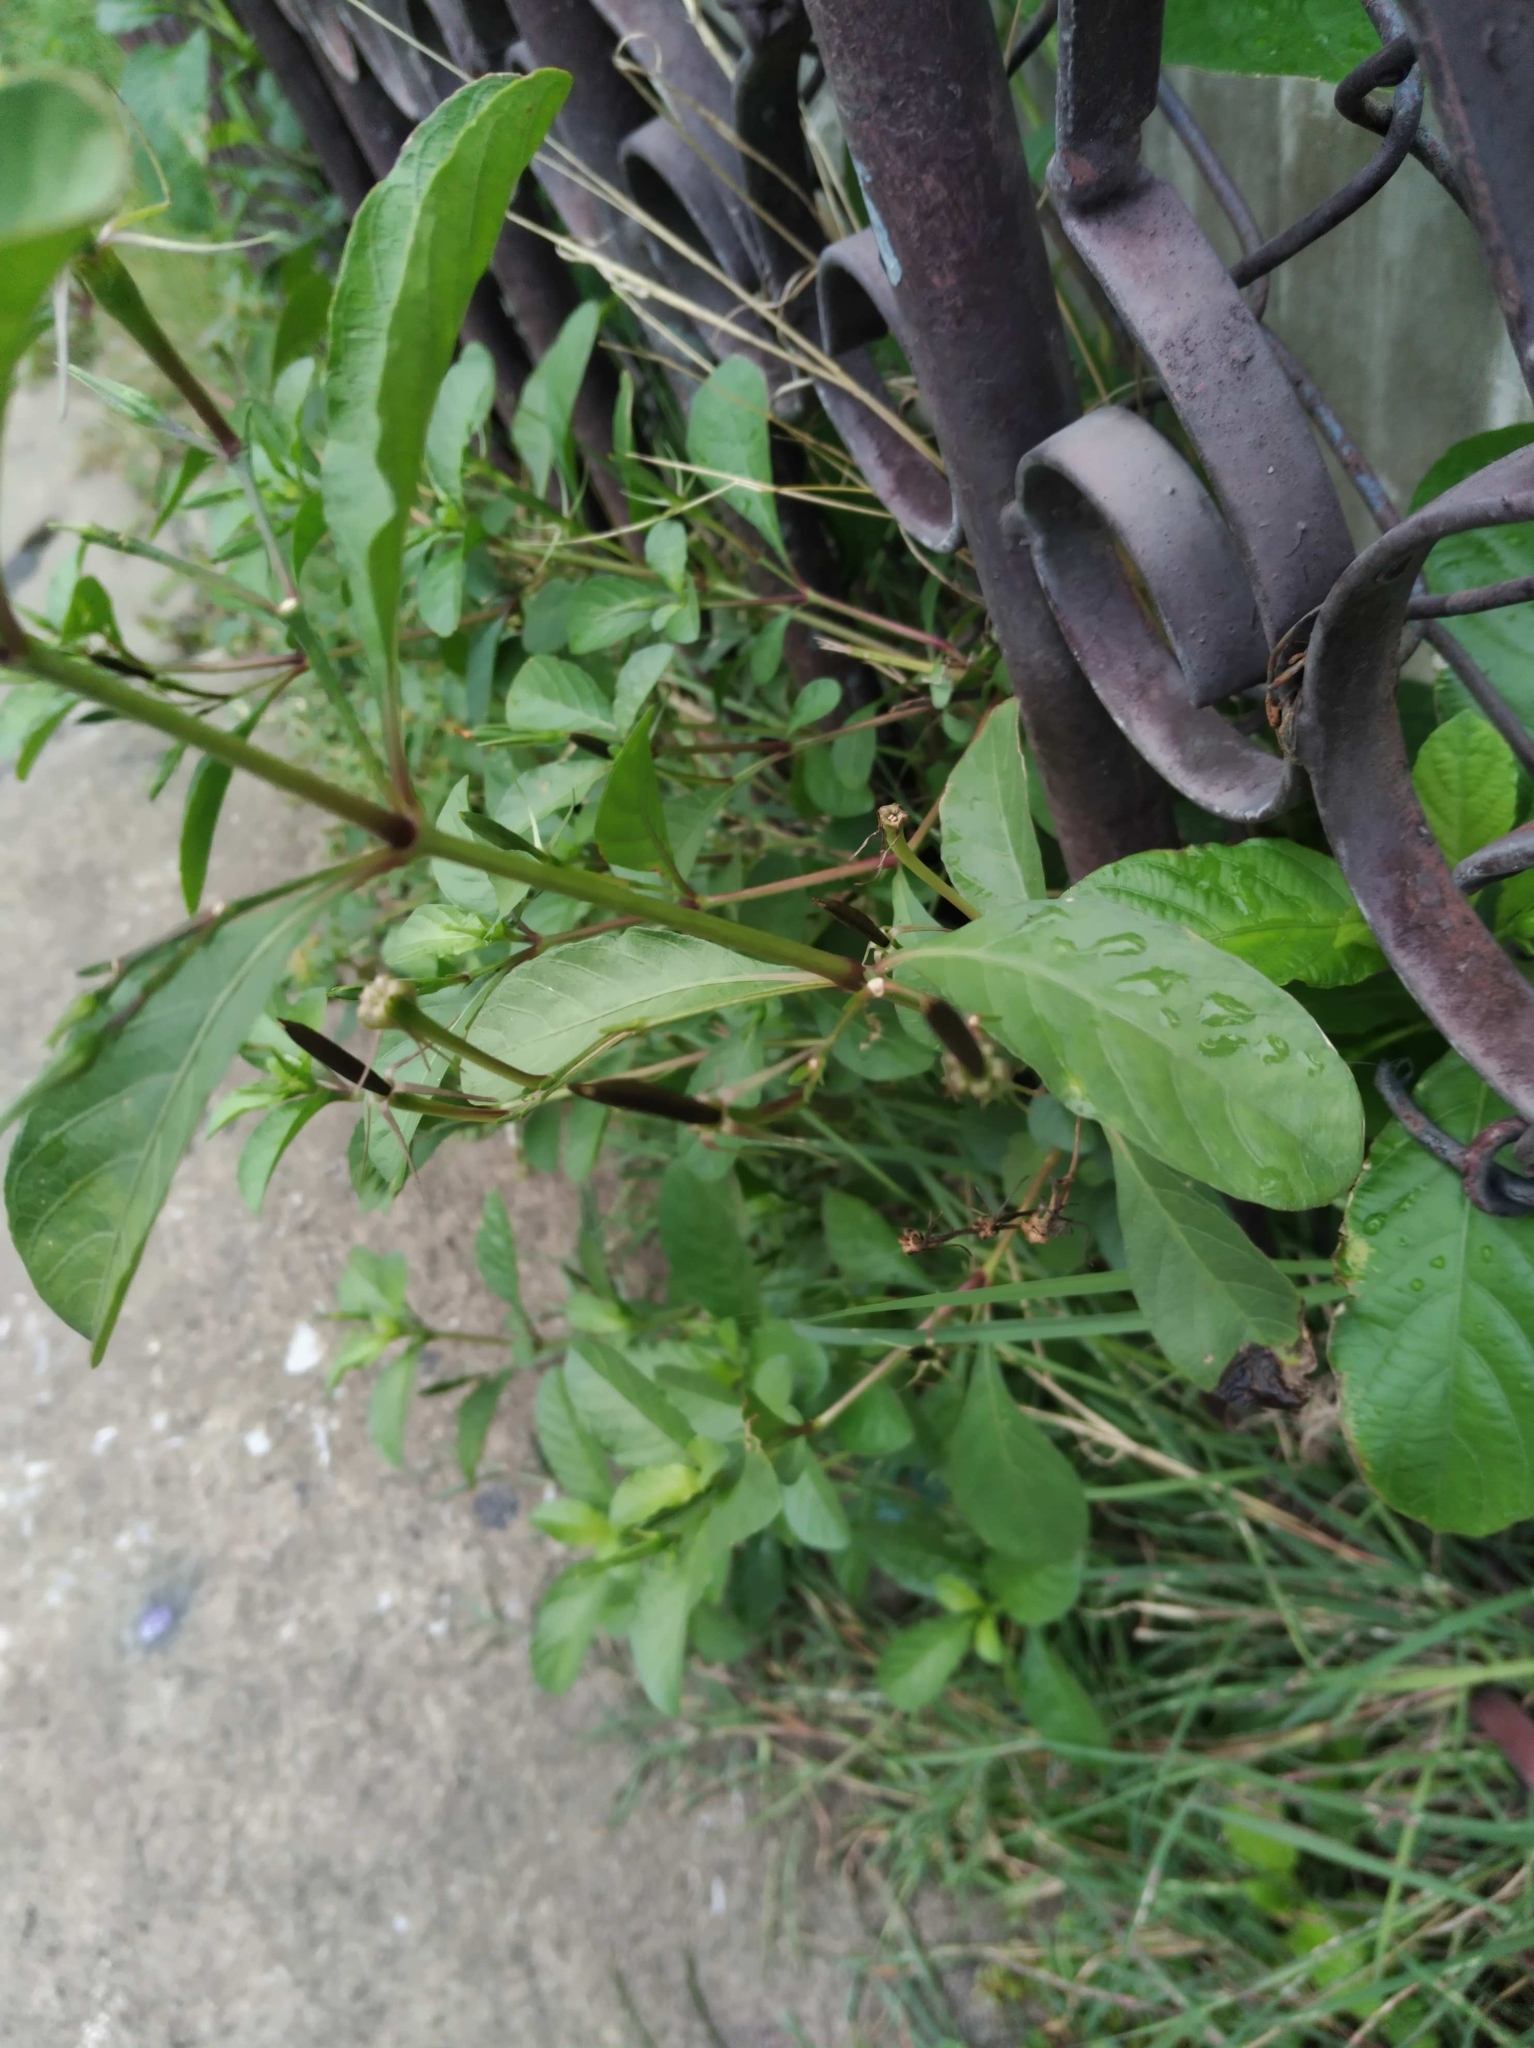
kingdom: Plantae
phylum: Tracheophyta
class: Magnoliopsida
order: Lamiales
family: Acanthaceae
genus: Ruellia
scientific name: Ruellia tuberosa
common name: Devil's bit
